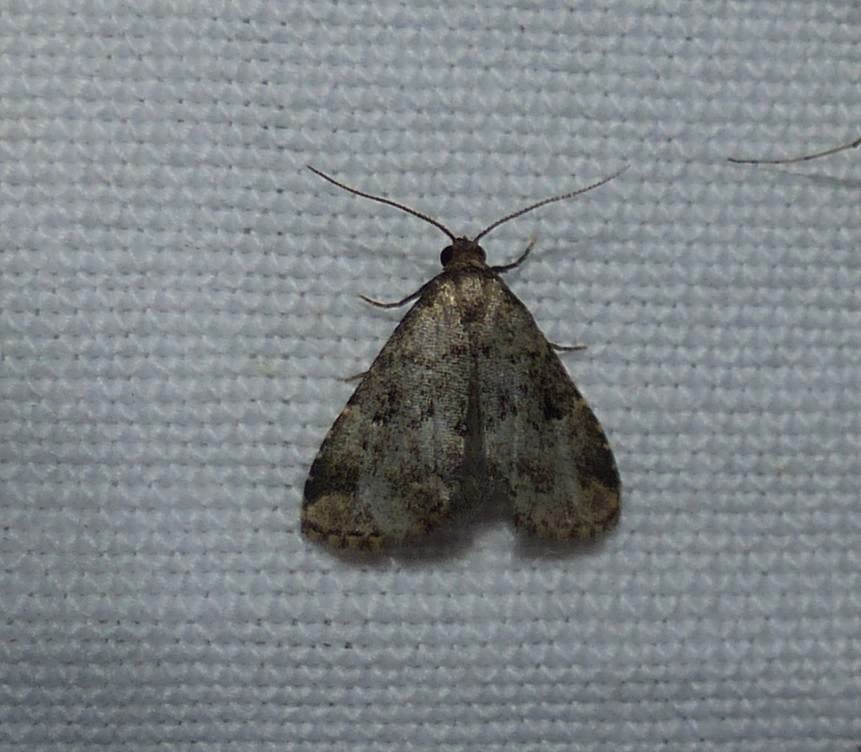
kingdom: Animalia
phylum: Arthropoda
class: Insecta
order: Lepidoptera
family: Erebidae
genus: Dyspyralis
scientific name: Dyspyralis illocata
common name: Visitation moth
